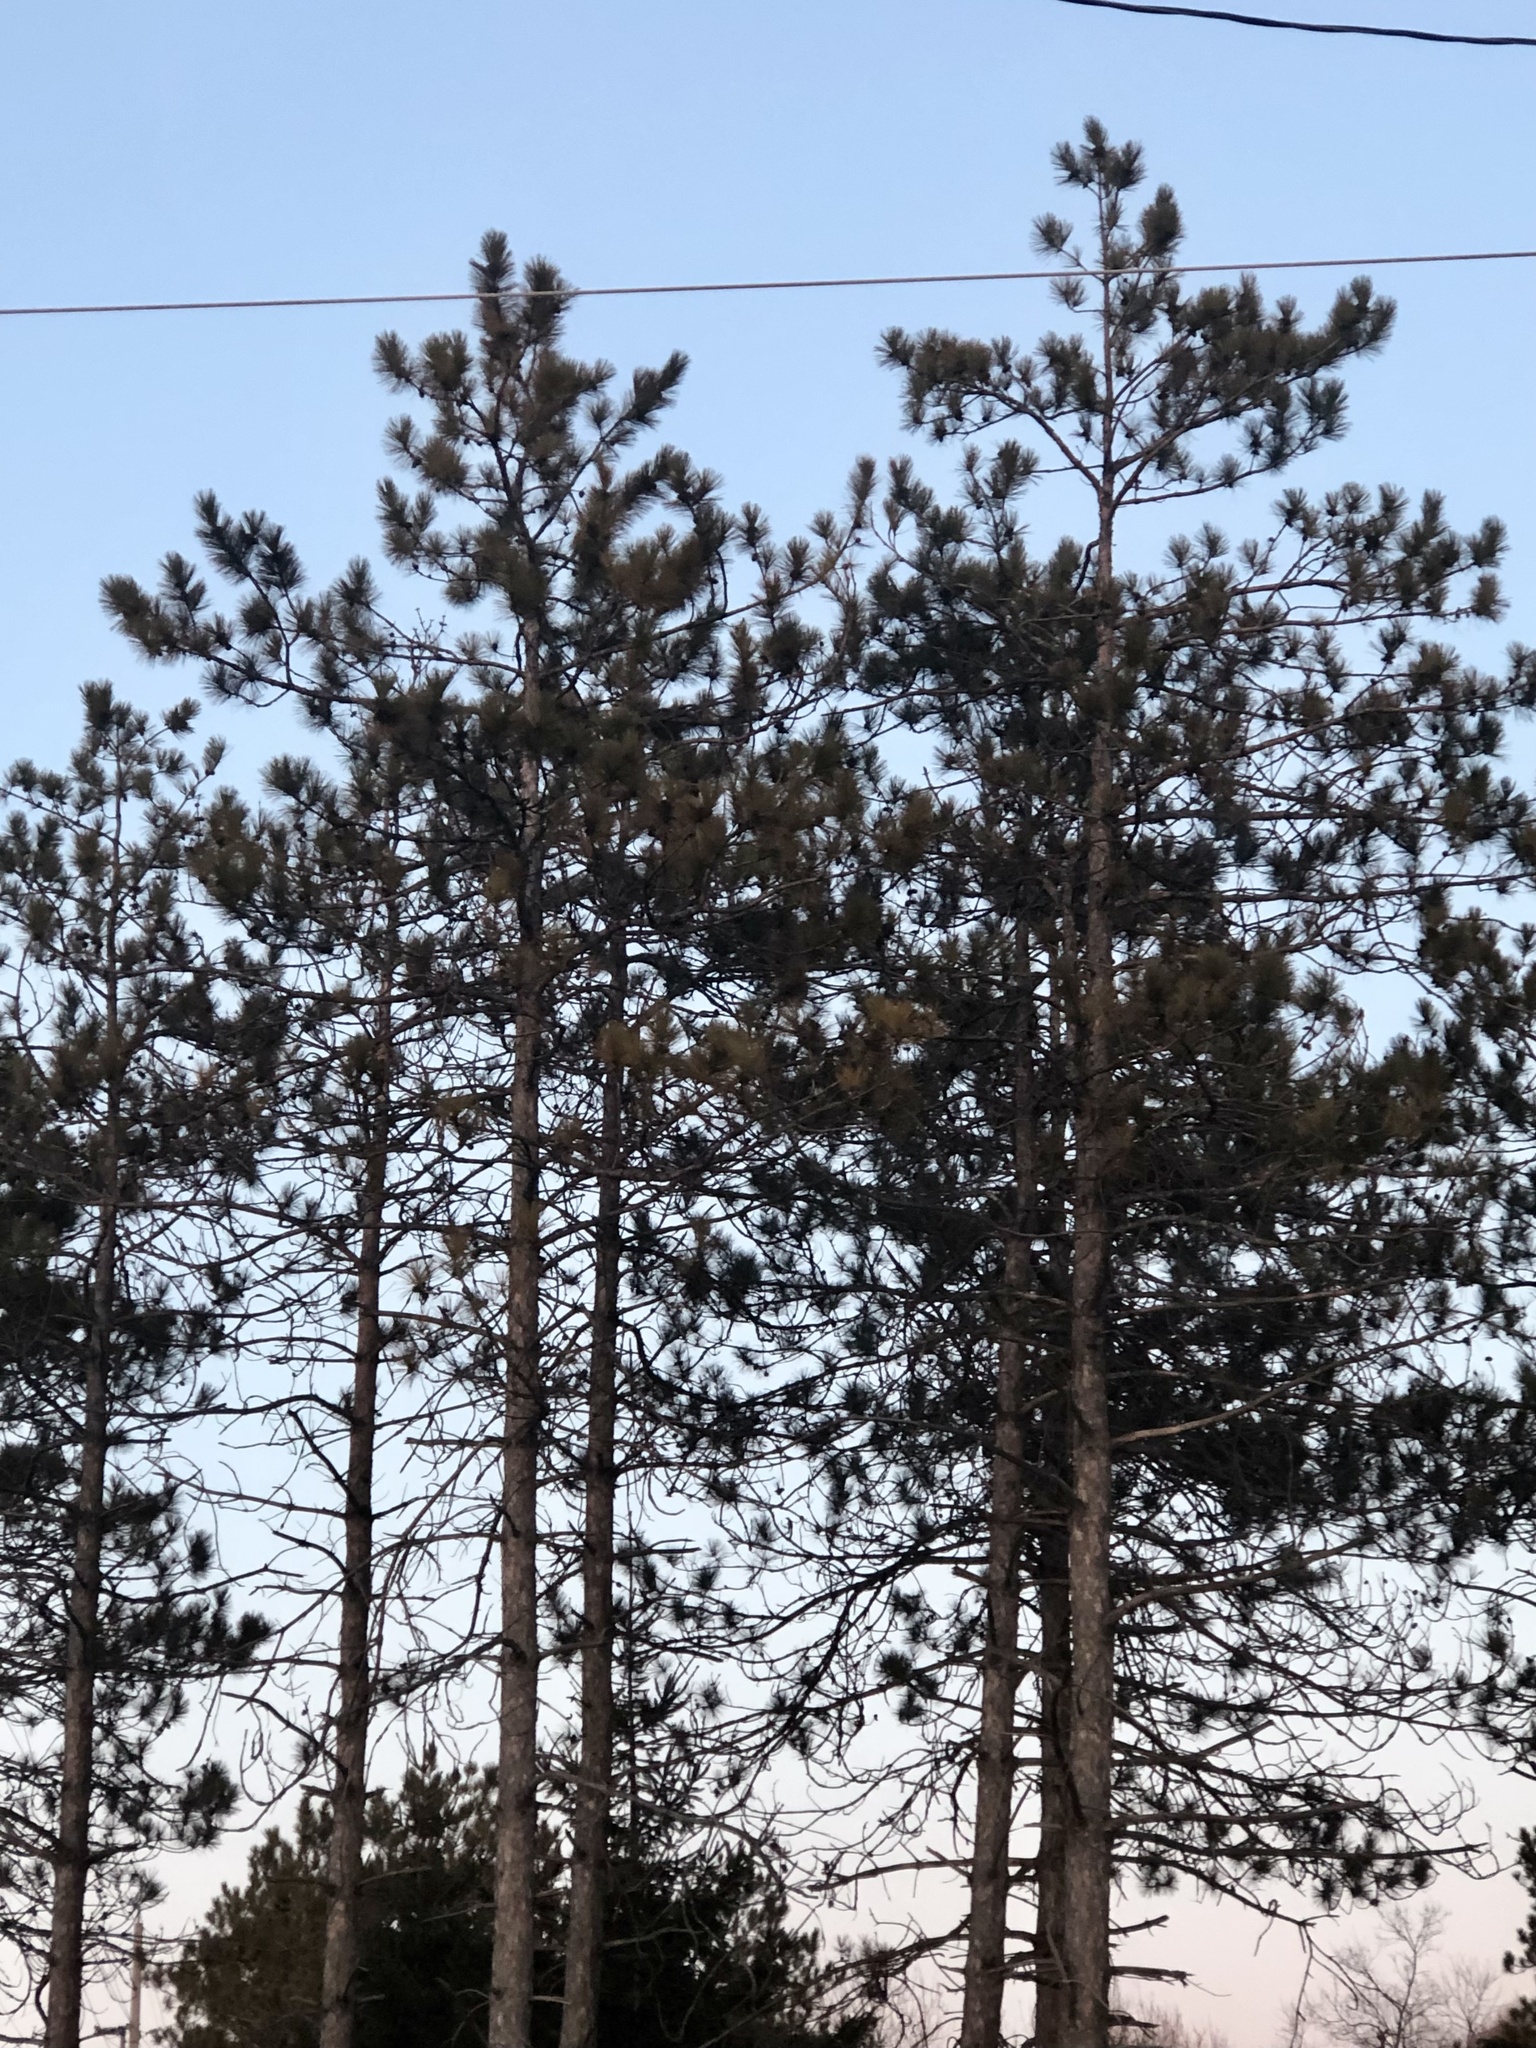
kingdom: Plantae
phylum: Tracheophyta
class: Pinopsida
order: Pinales
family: Pinaceae
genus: Pinus
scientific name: Pinus resinosa
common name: Norway pine
